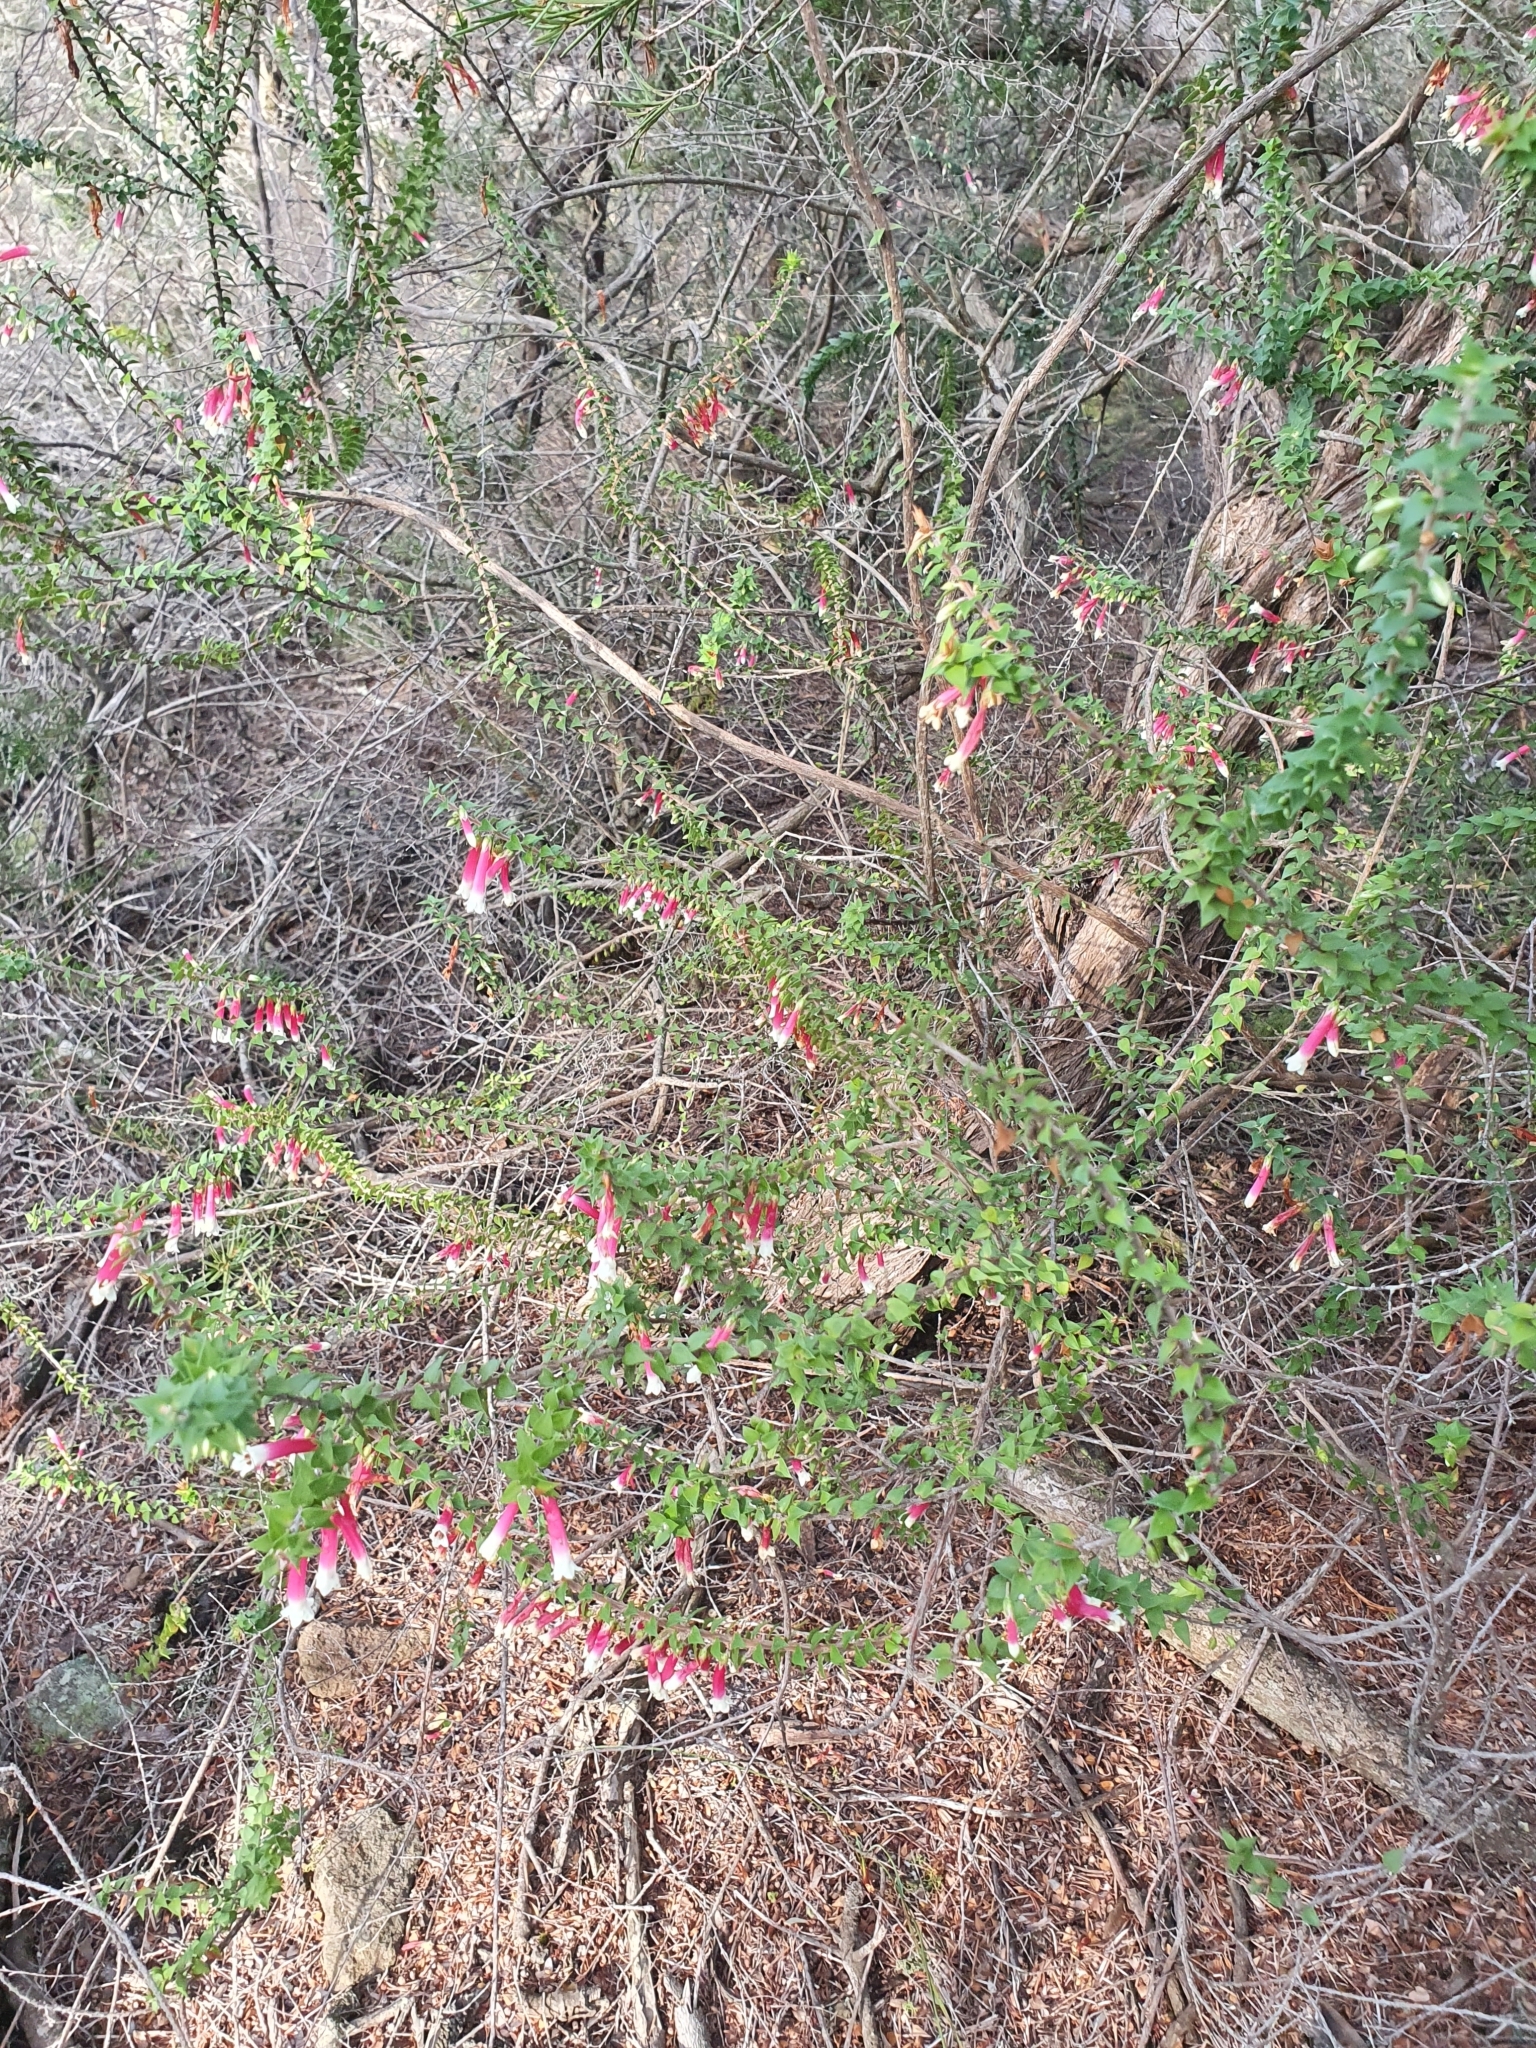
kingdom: Plantae
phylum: Tracheophyta
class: Magnoliopsida
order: Ericales
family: Ericaceae
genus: Epacris
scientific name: Epacris longiflora
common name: Fuchsia-heath
